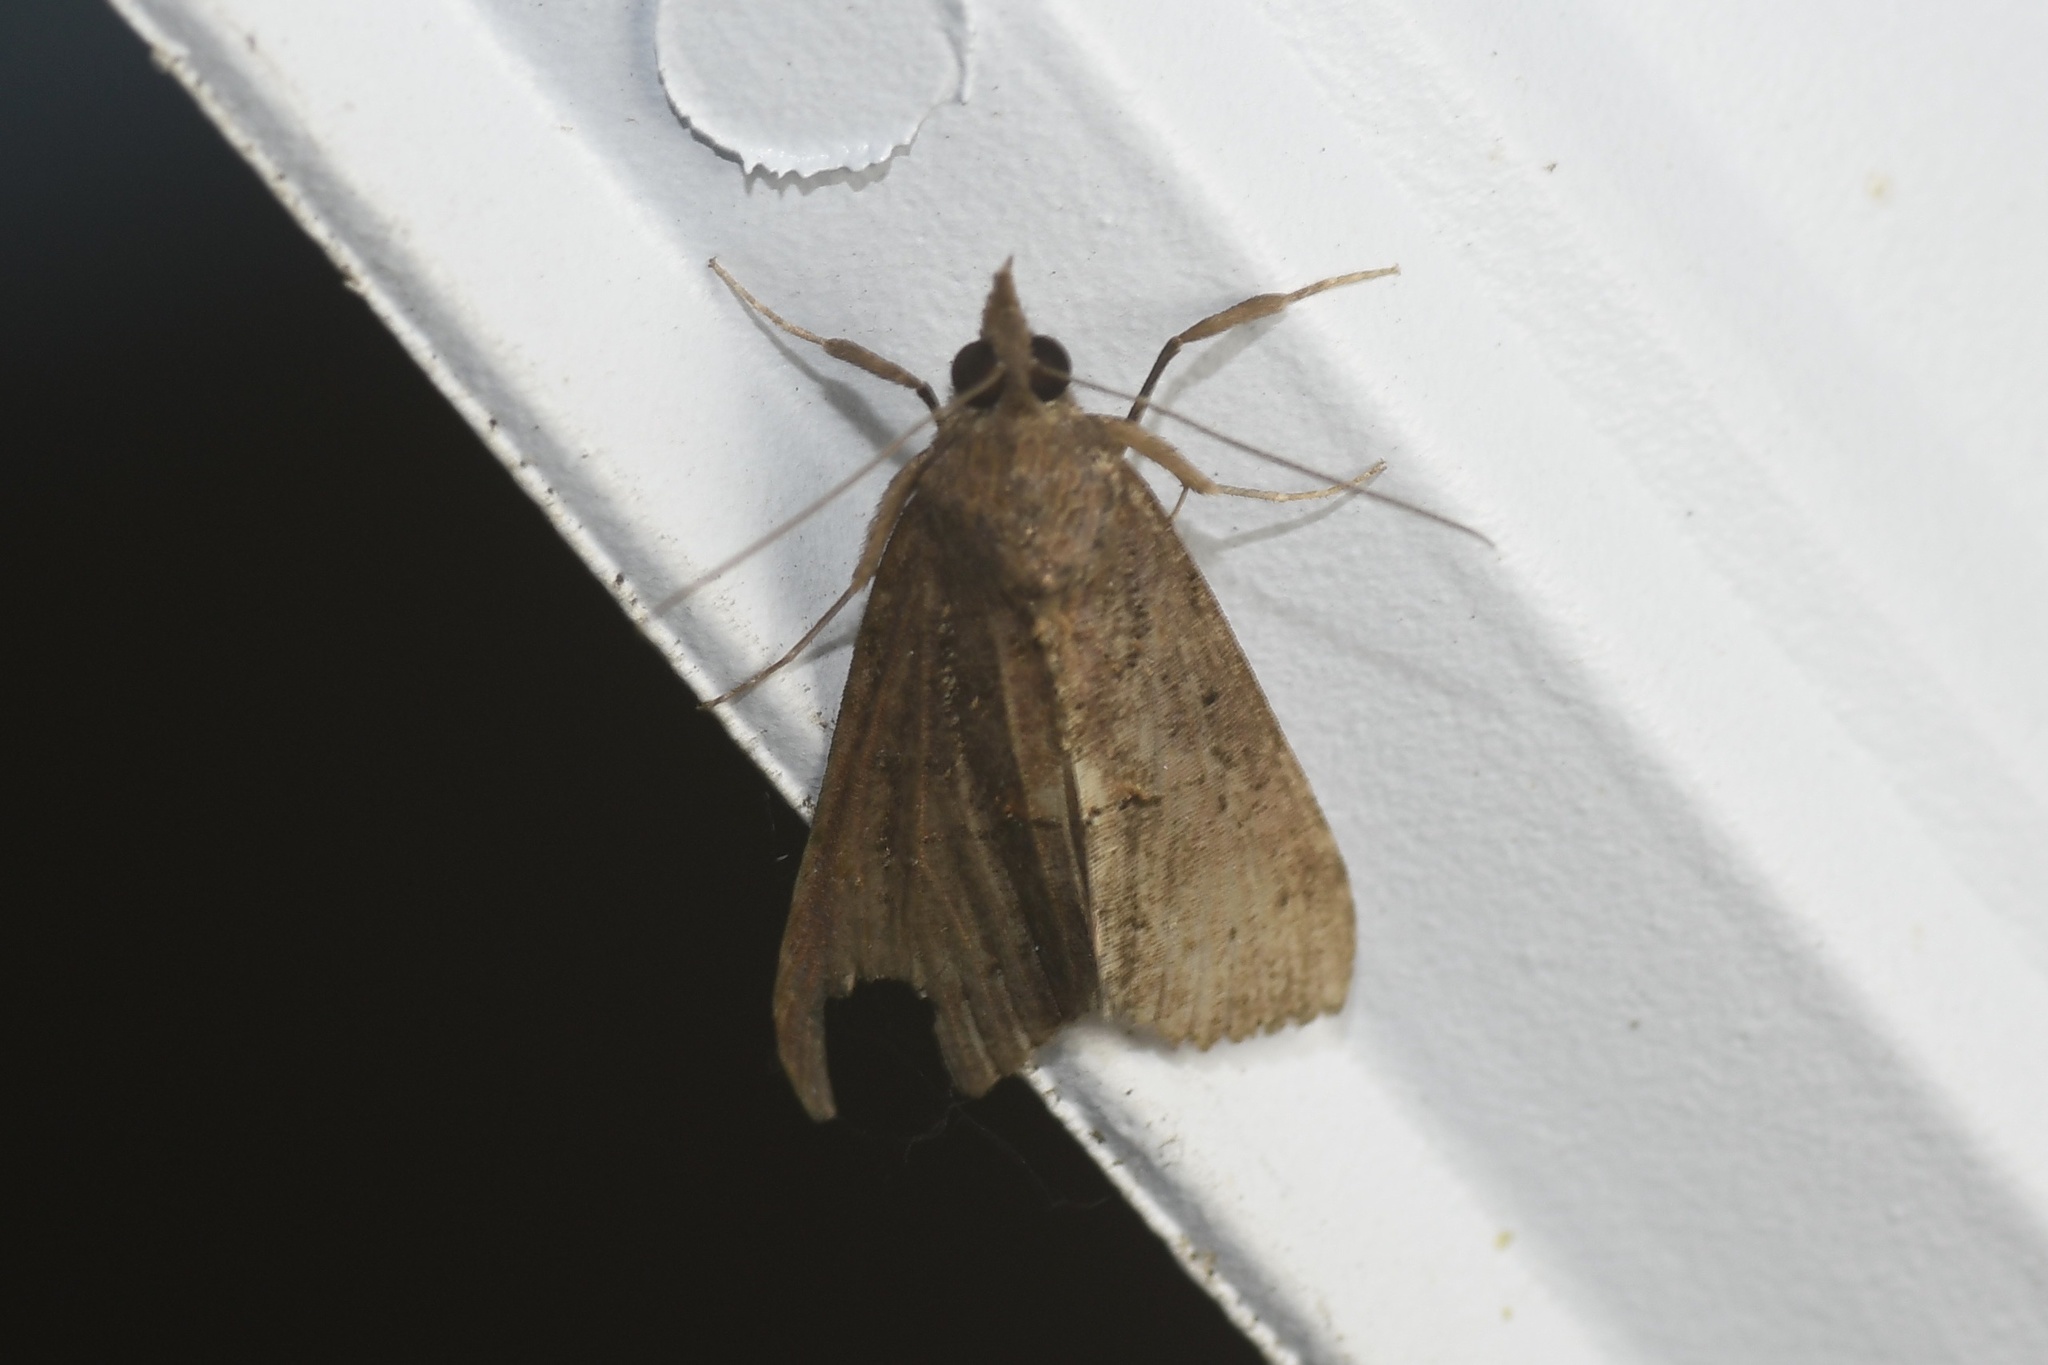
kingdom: Animalia
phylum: Arthropoda
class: Insecta
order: Lepidoptera
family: Erebidae
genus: Hypena
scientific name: Hypena scabra
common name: Green cloverworm
